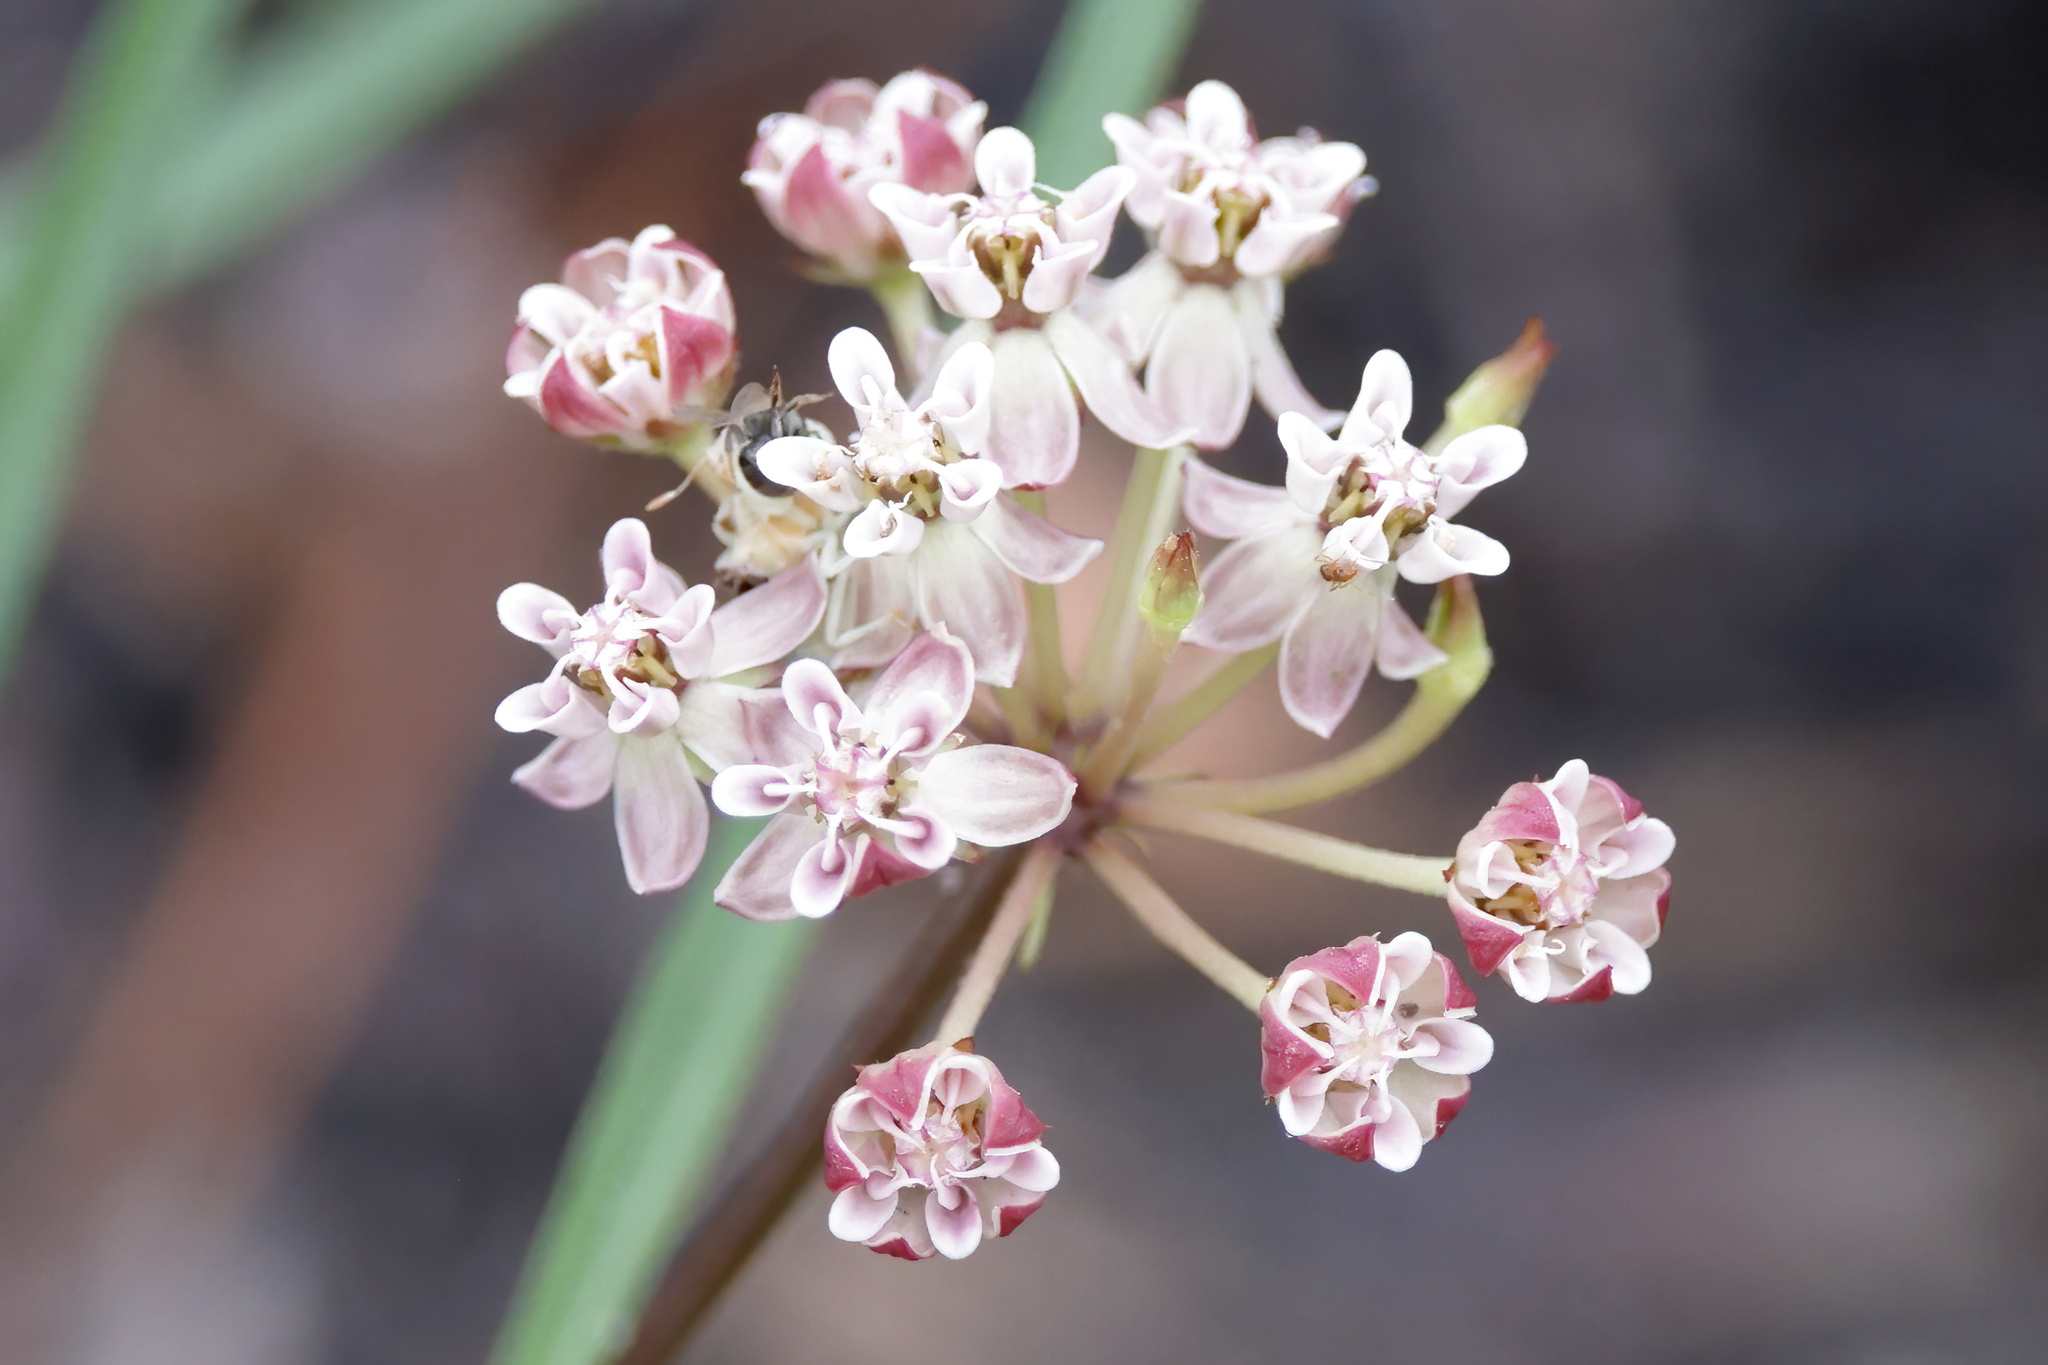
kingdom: Plantae
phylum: Tracheophyta
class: Magnoliopsida
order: Gentianales
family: Apocynaceae
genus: Asclepias
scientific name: Asclepias michauxii
